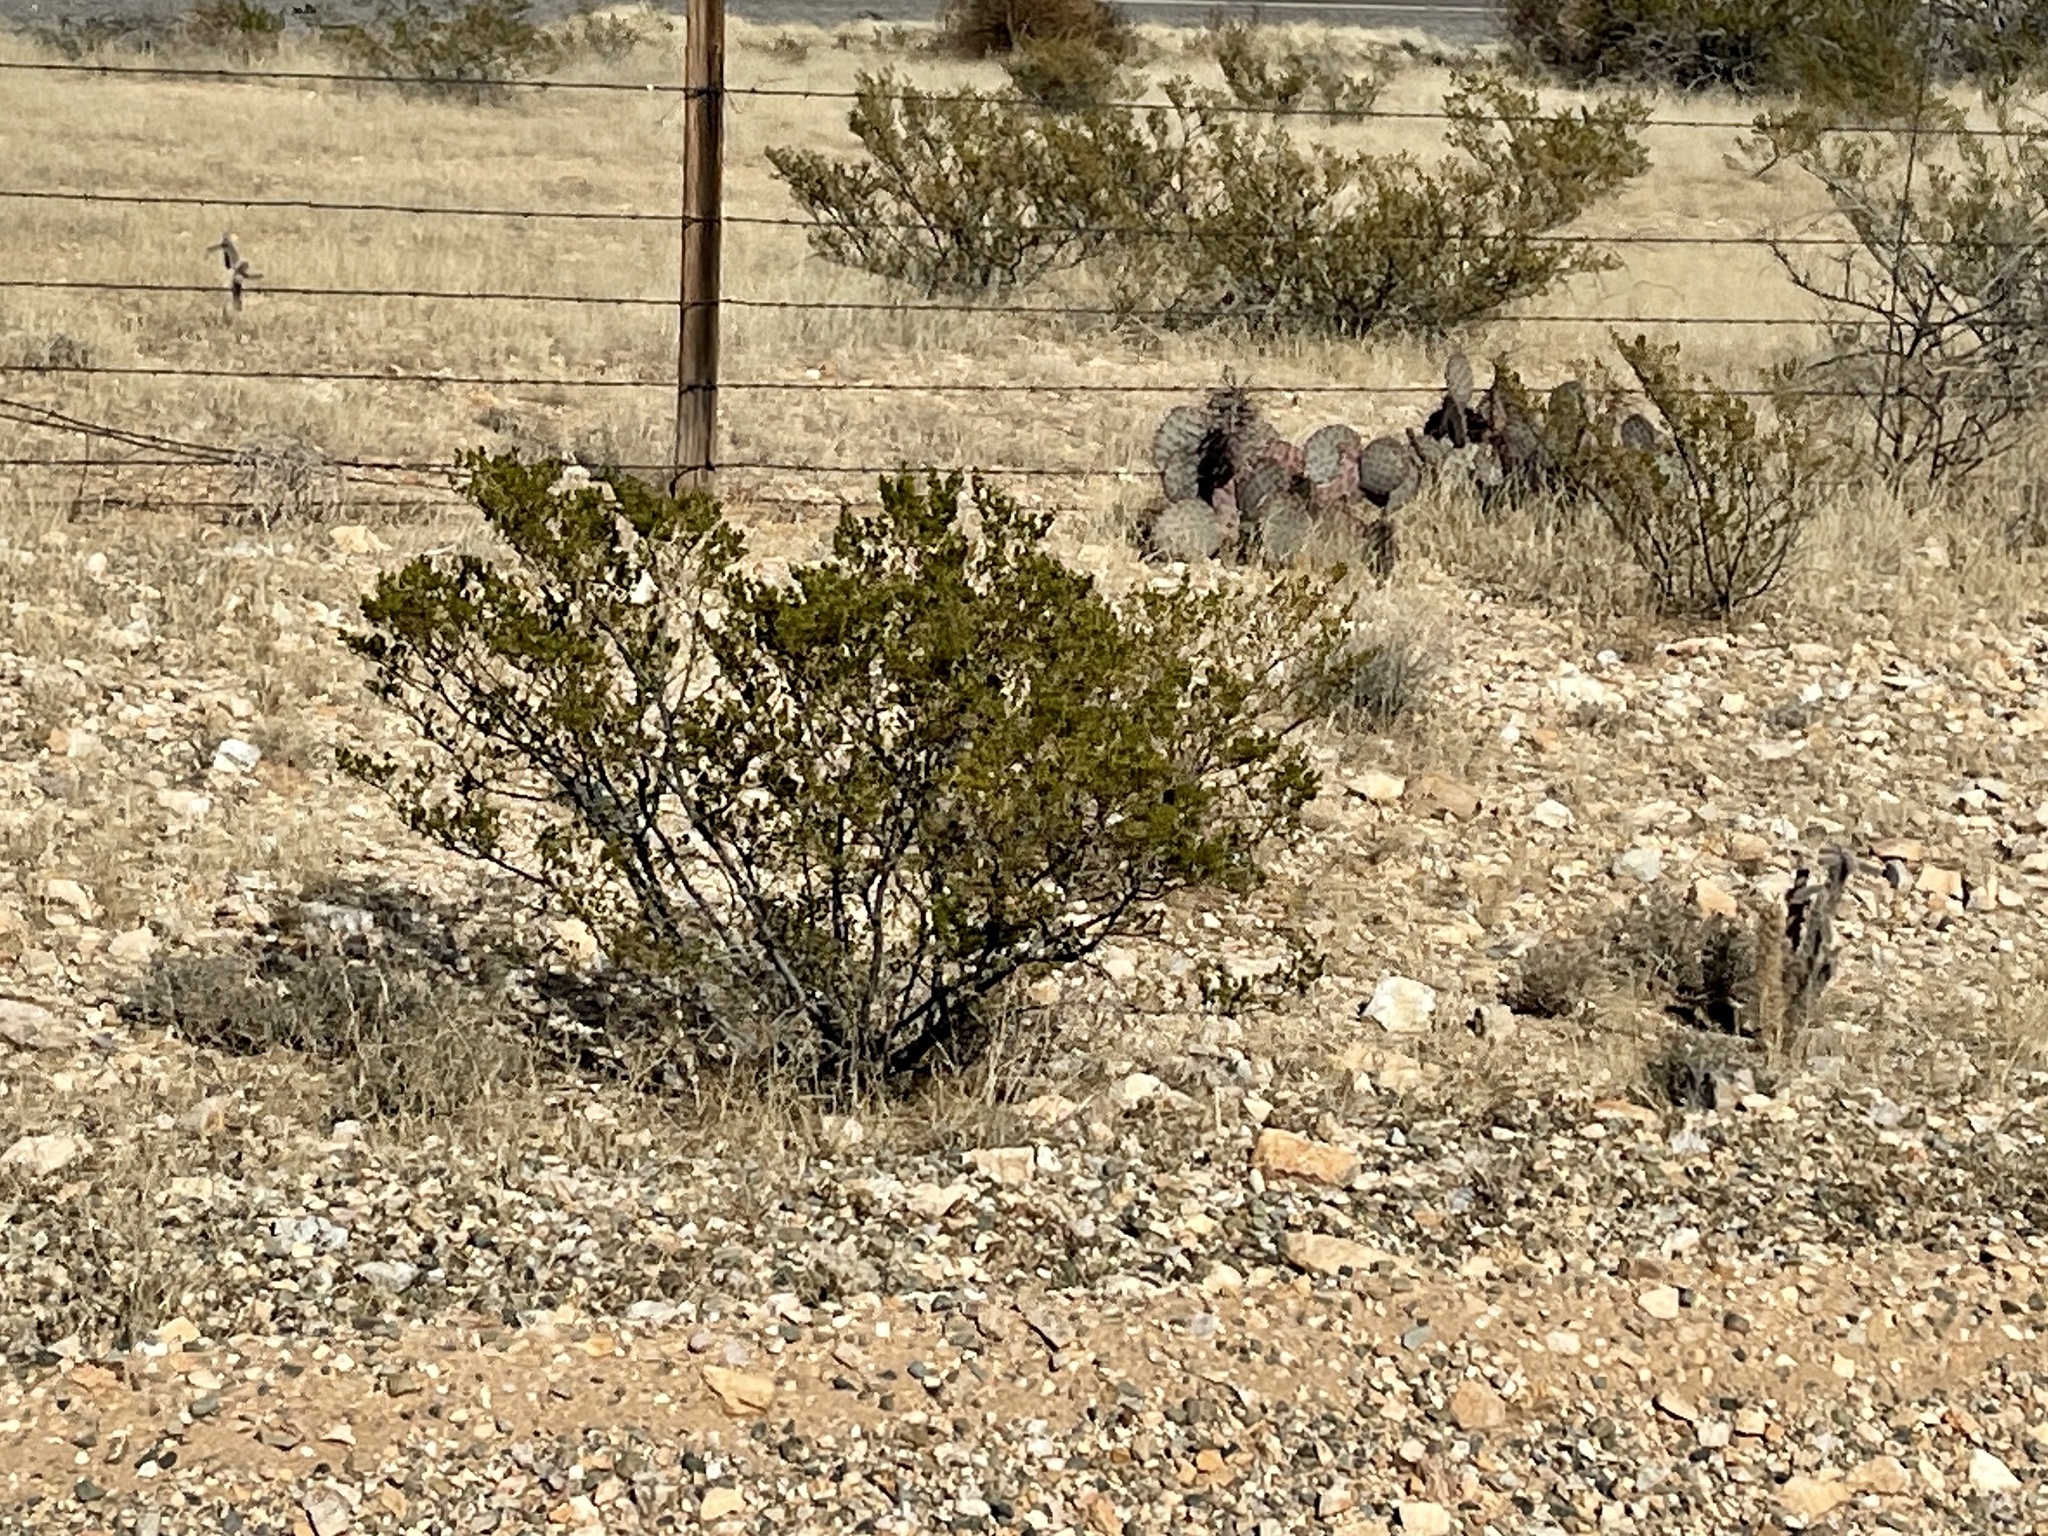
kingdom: Plantae
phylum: Tracheophyta
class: Magnoliopsida
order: Zygophyllales
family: Zygophyllaceae
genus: Larrea
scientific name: Larrea tridentata
